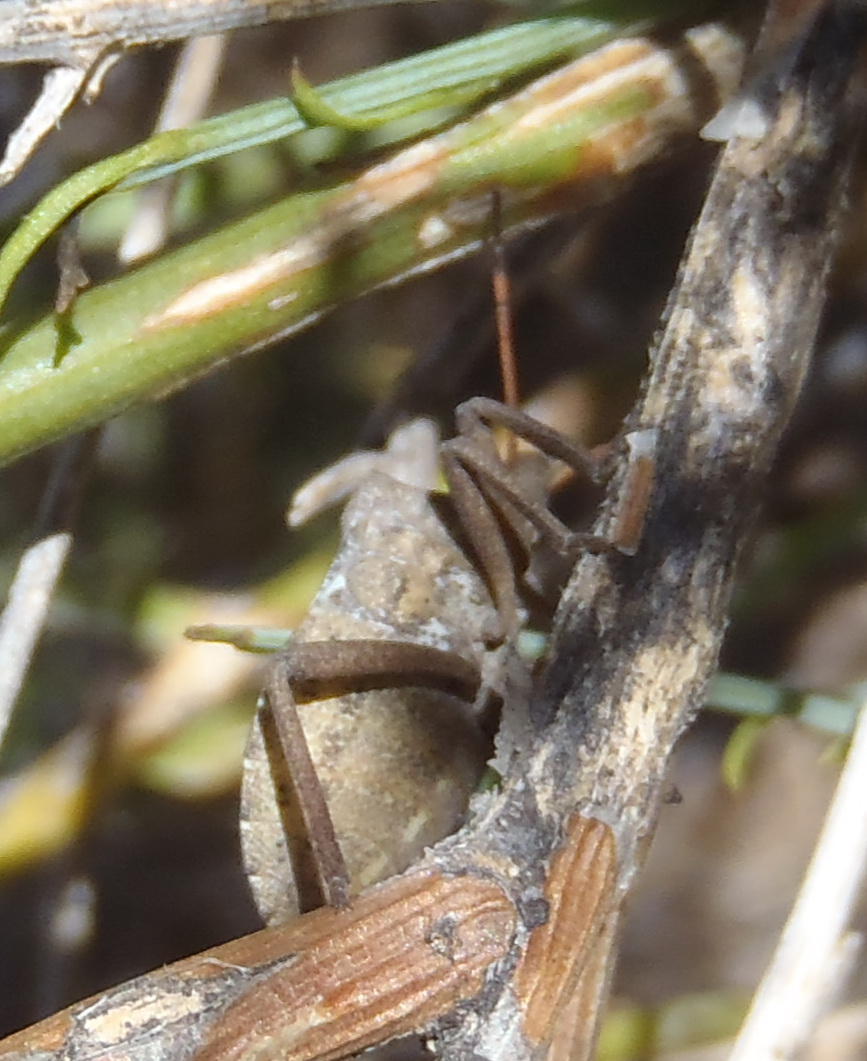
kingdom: Animalia
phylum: Arthropoda
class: Insecta
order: Hemiptera
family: Pentatomidae
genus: Steleocoris
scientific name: Steleocoris comma
